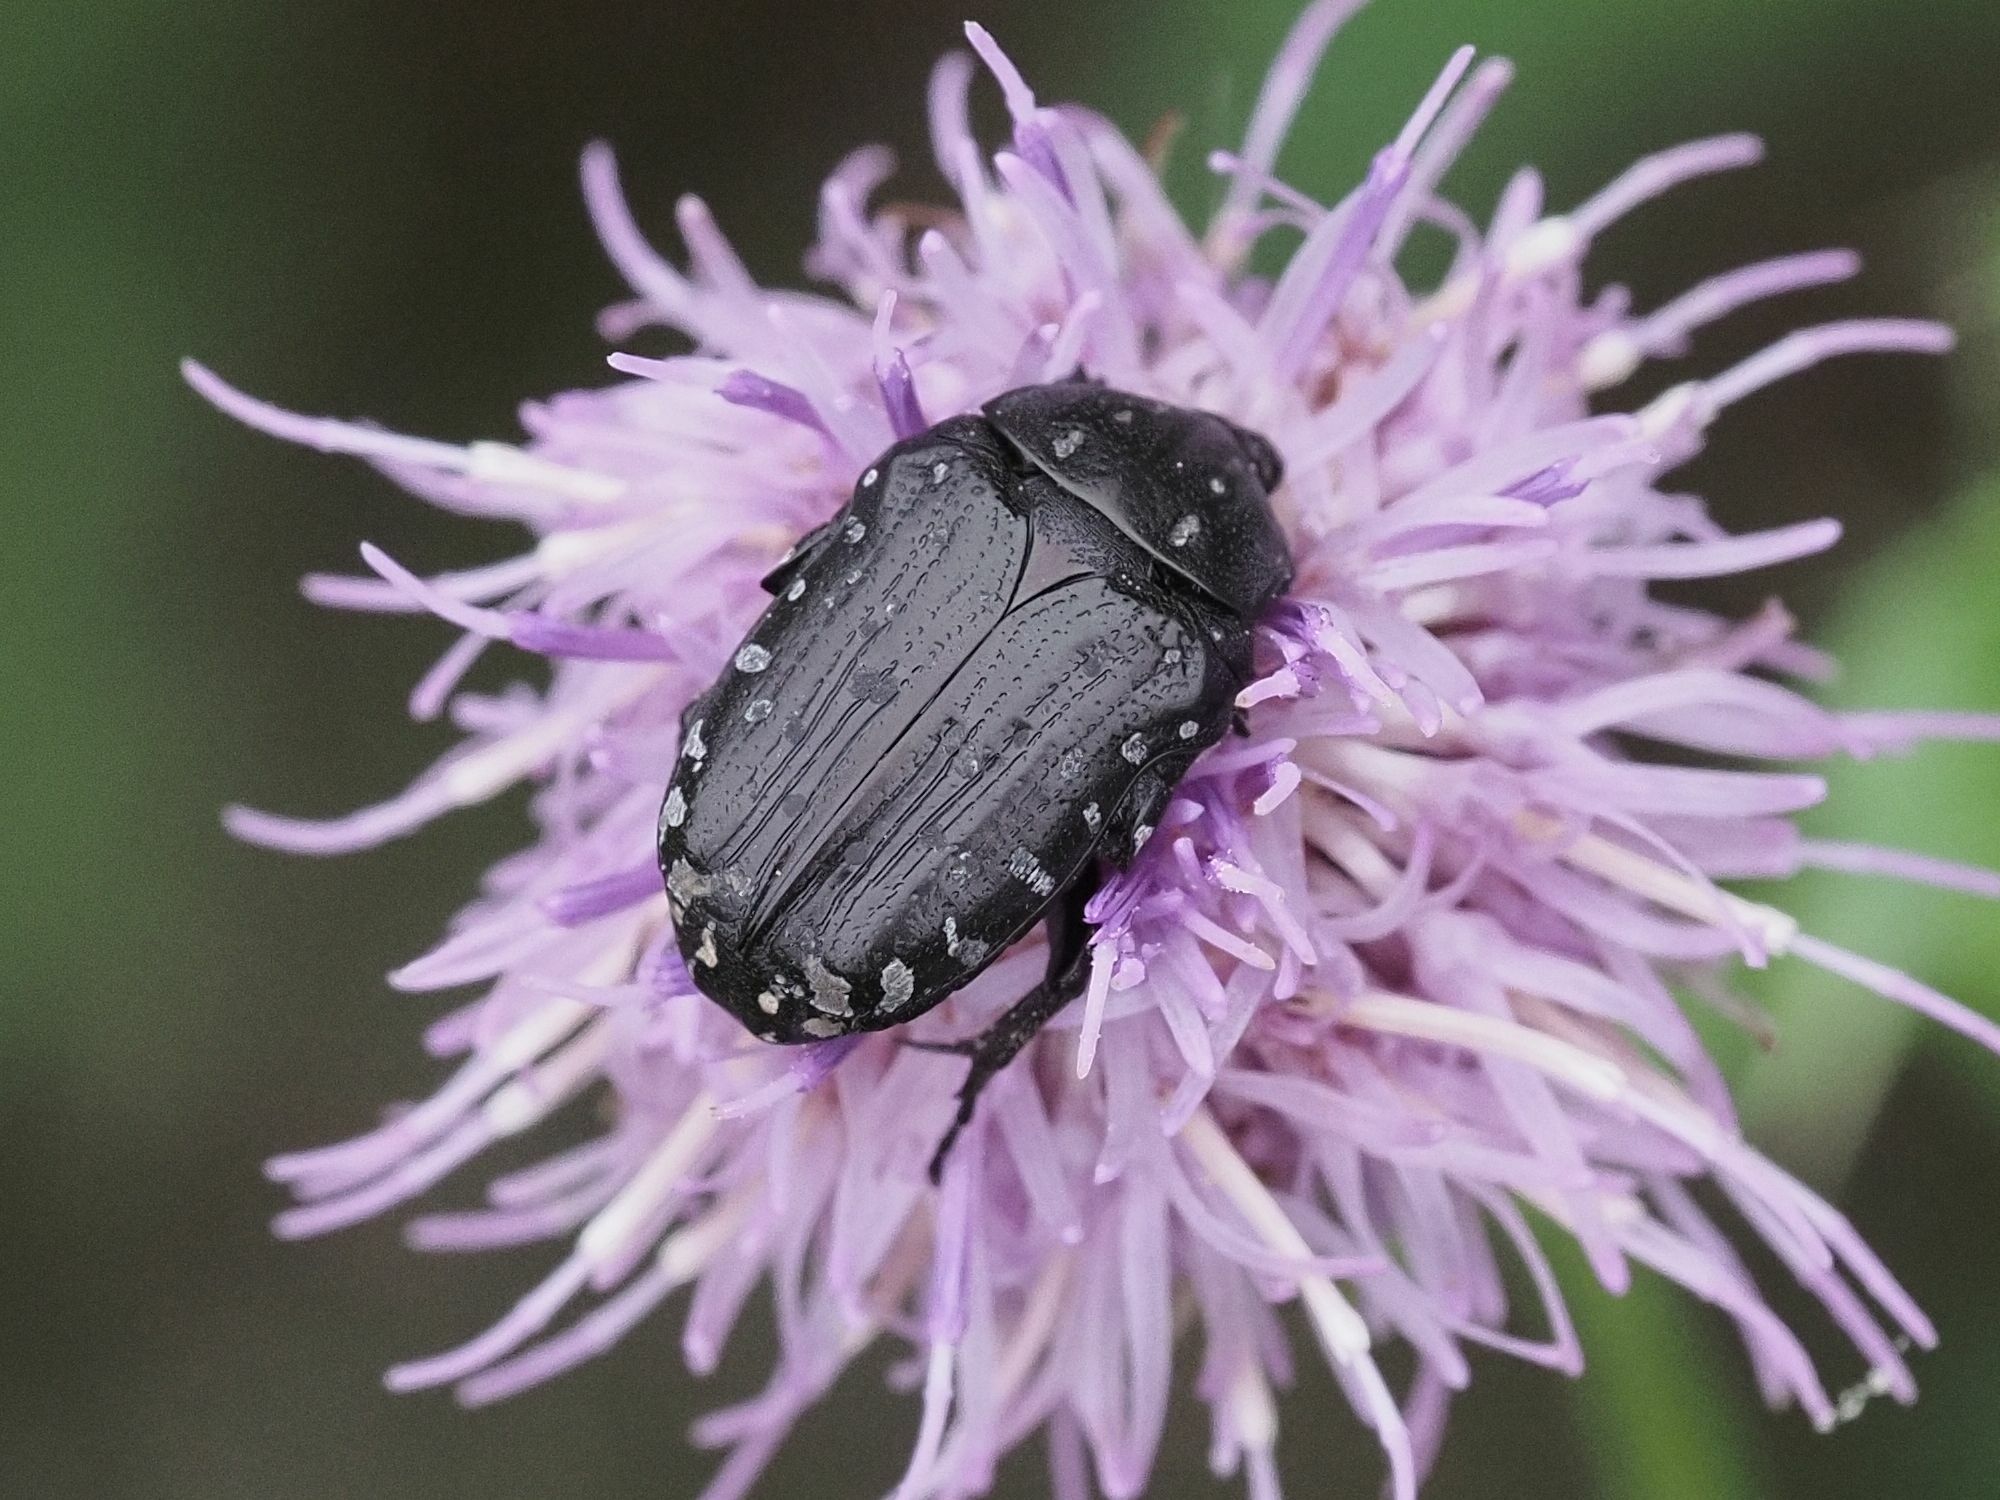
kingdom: Animalia
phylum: Arthropoda
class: Insecta
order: Coleoptera
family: Scarabaeidae
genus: Oxythyrea
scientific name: Oxythyrea funesta
